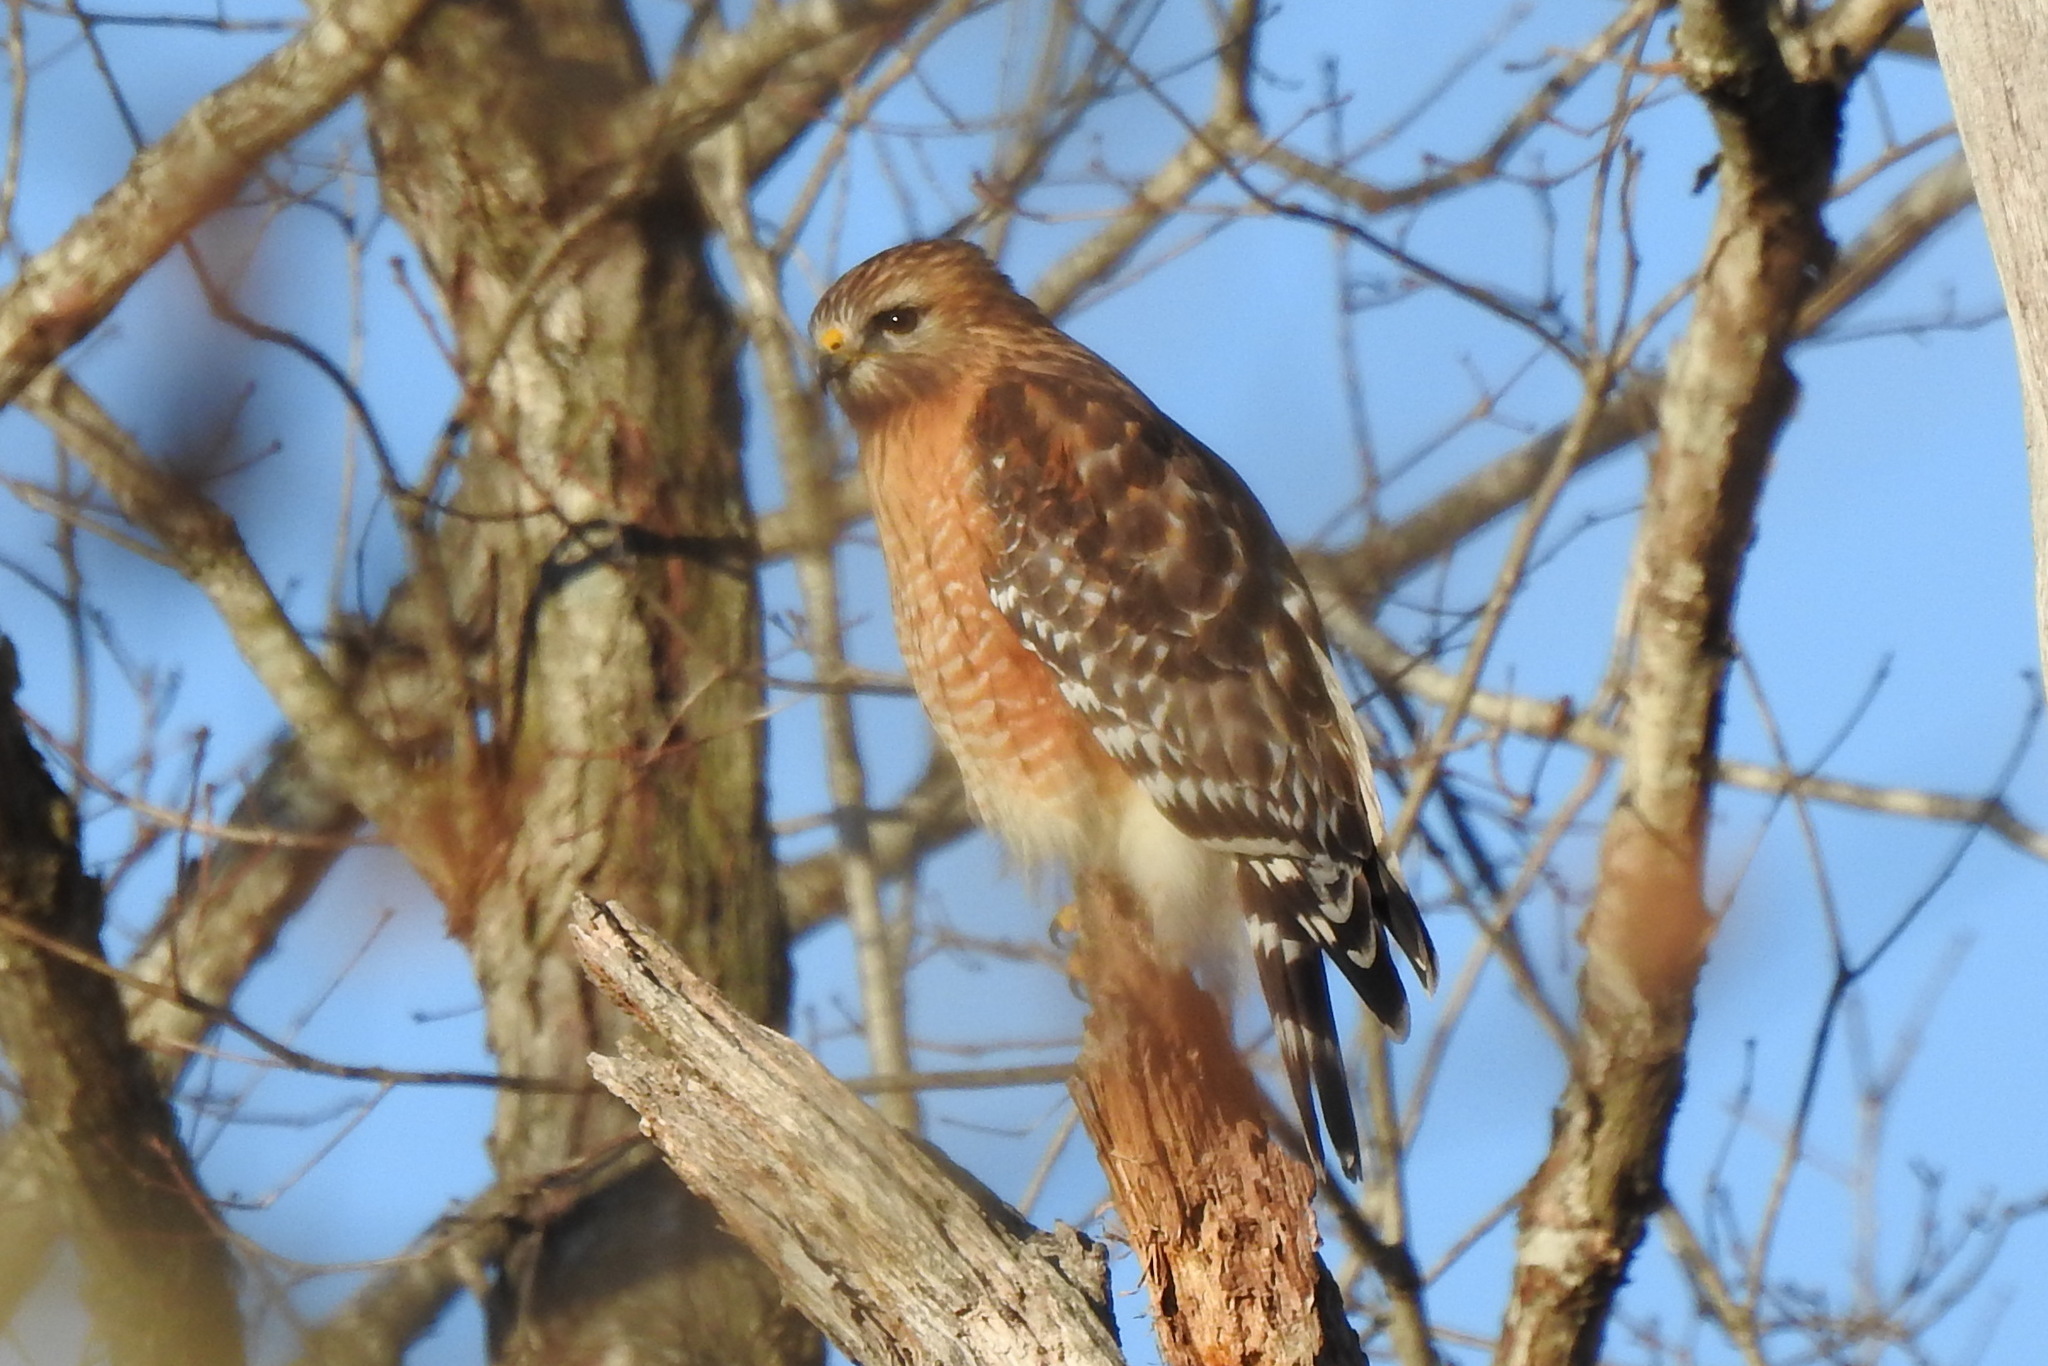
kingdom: Animalia
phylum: Chordata
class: Aves
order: Accipitriformes
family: Accipitridae
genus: Buteo
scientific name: Buteo lineatus
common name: Red-shouldered hawk
